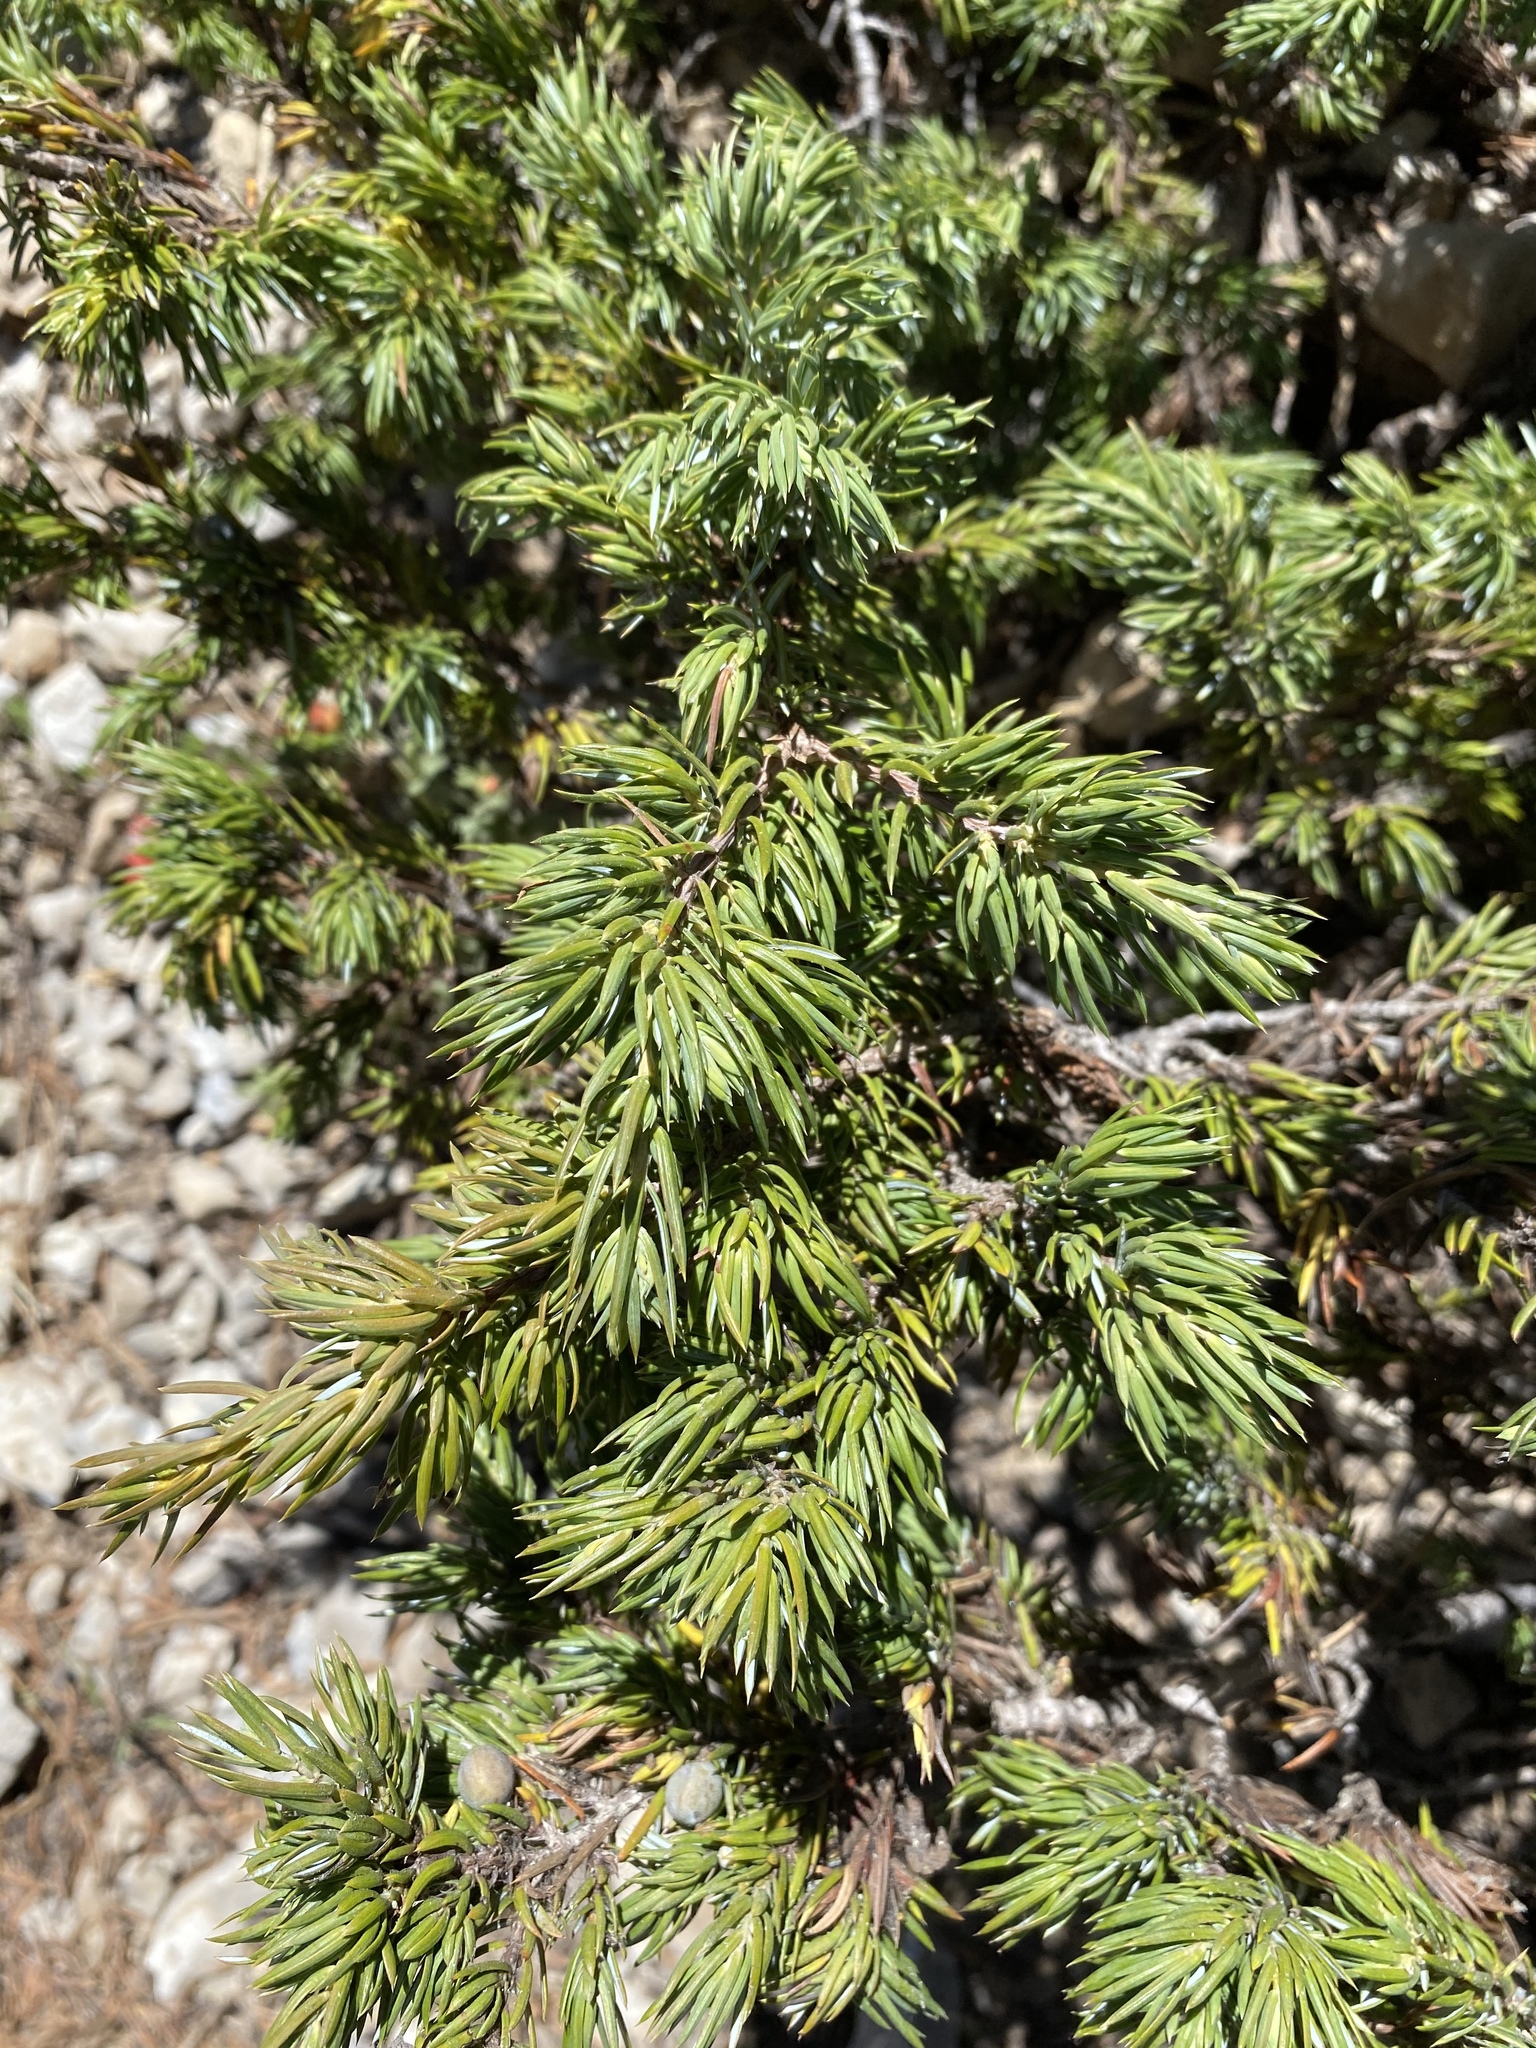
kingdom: Plantae
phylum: Tracheophyta
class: Pinopsida
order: Pinales
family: Cupressaceae
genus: Juniperus
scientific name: Juniperus communis
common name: Common juniper
